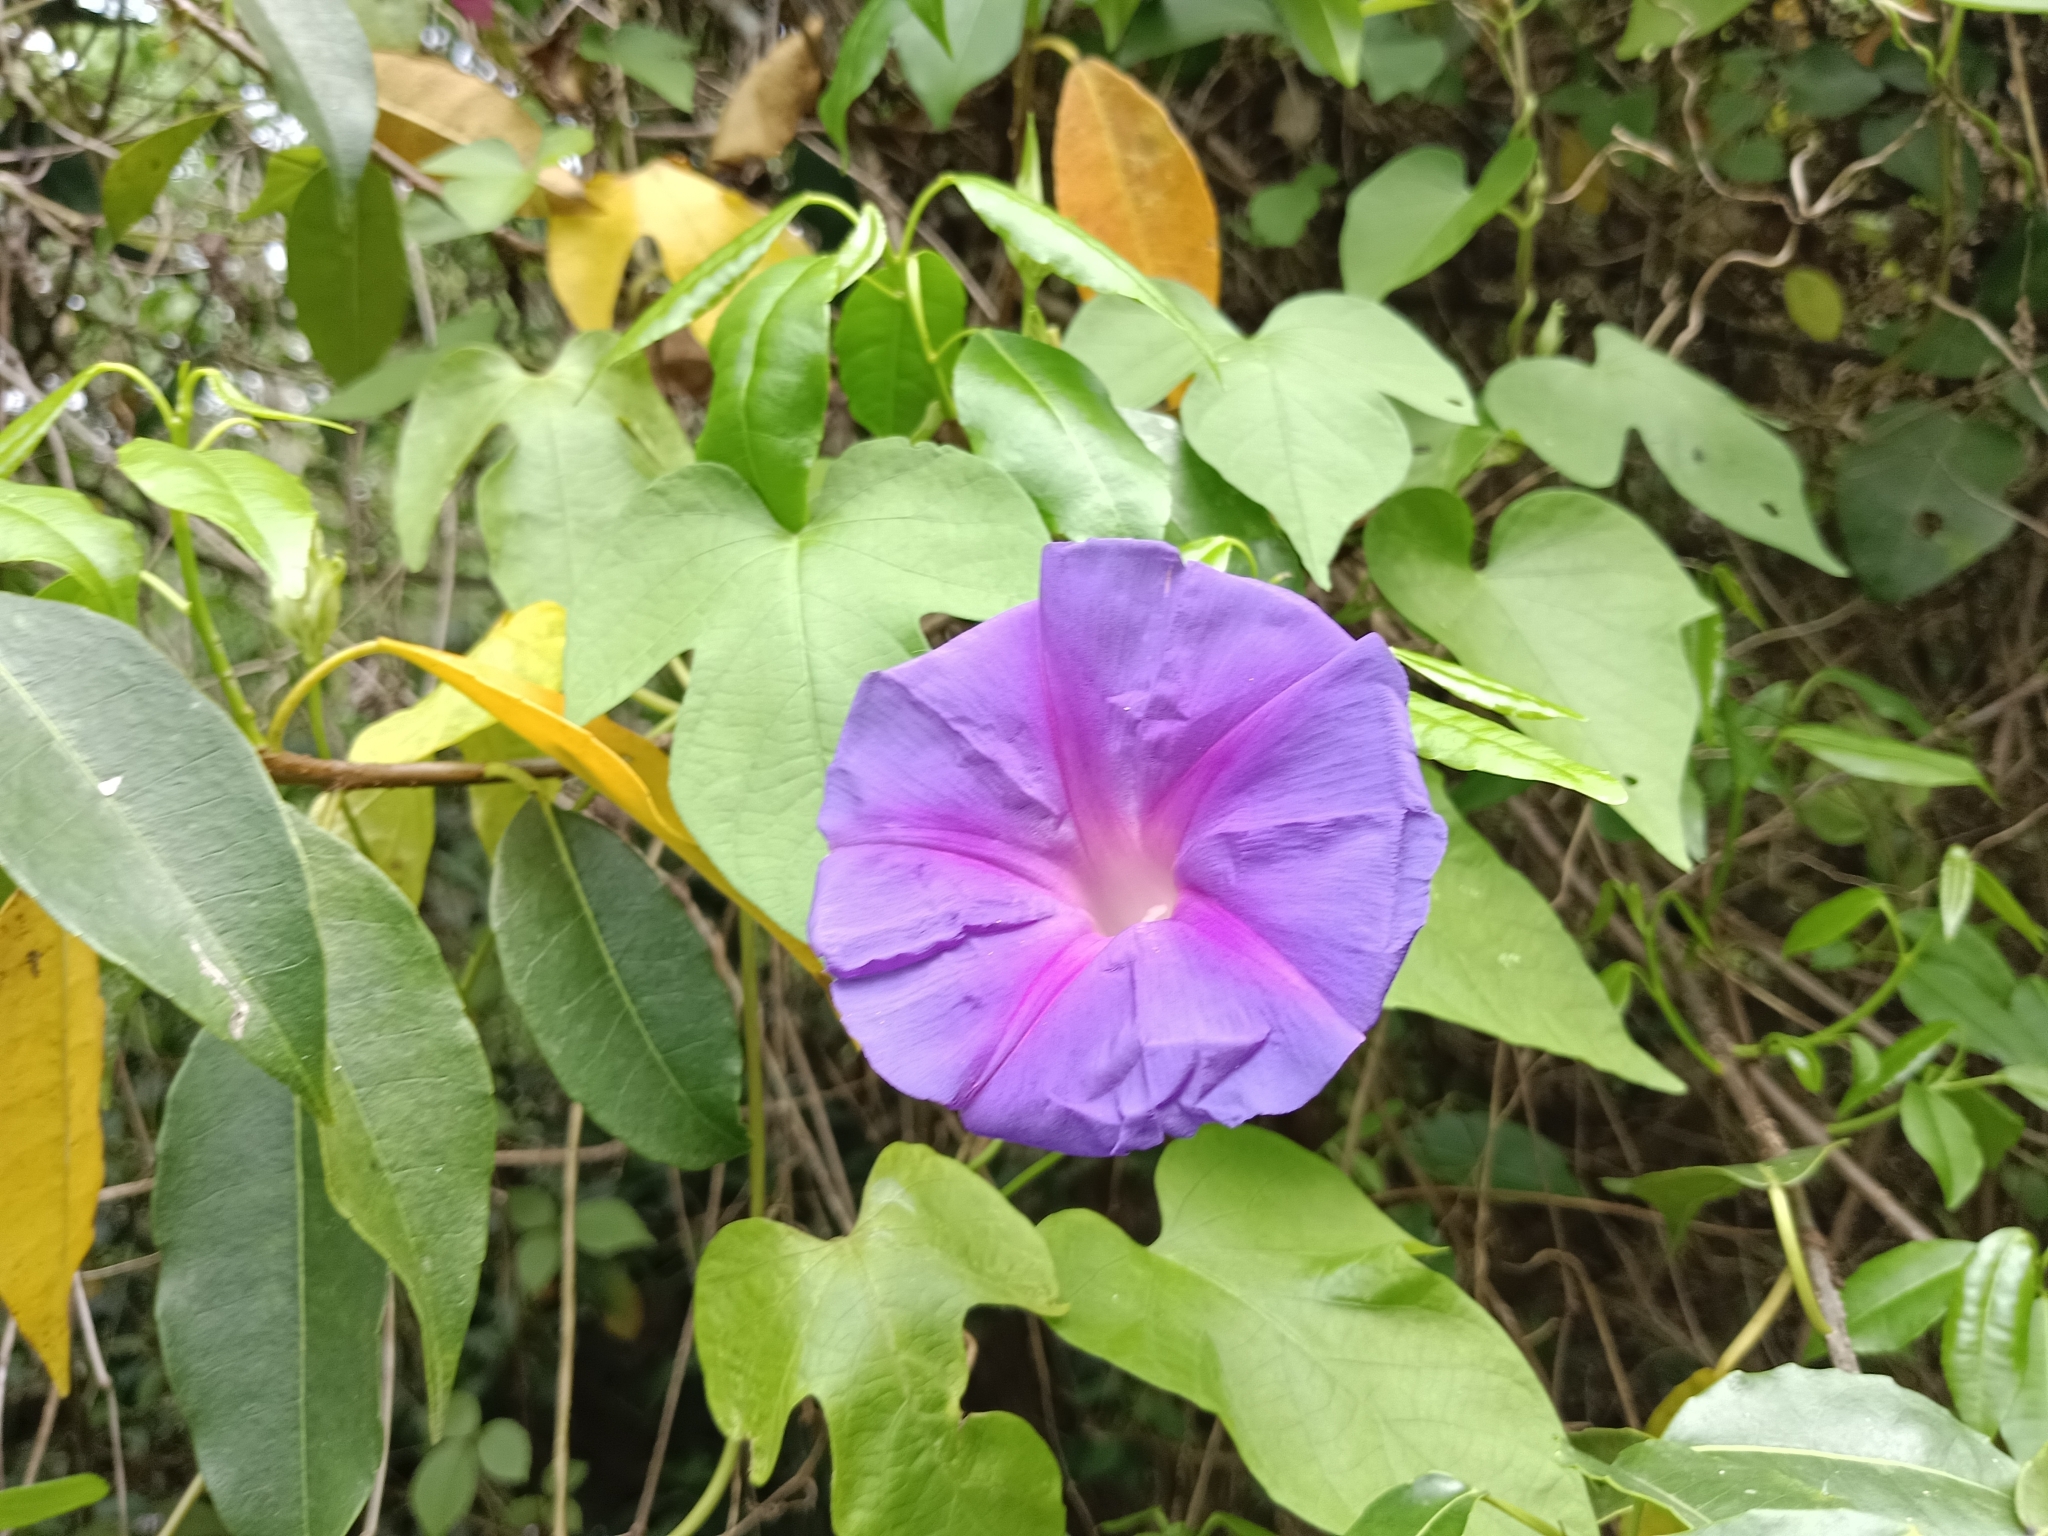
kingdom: Plantae
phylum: Tracheophyta
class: Magnoliopsida
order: Solanales
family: Convolvulaceae
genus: Ipomoea
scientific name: Ipomoea indica
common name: Blue dawnflower
